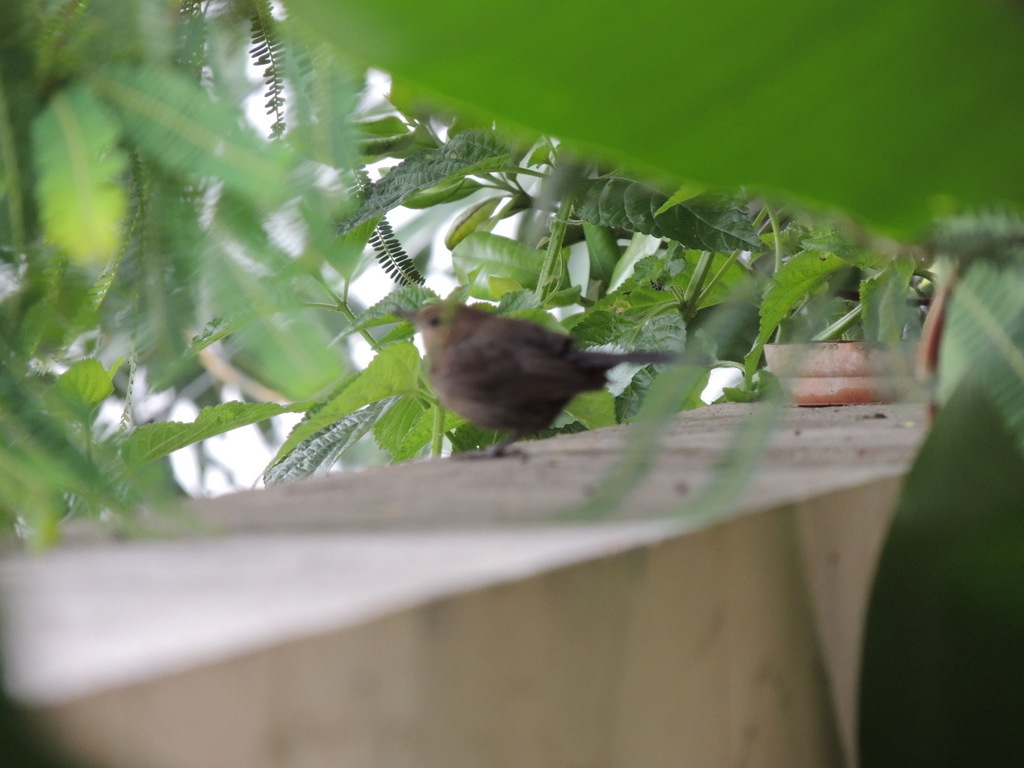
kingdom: Animalia
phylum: Chordata
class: Aves
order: Passeriformes
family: Muscicapidae
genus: Saxicoloides
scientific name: Saxicoloides fulicatus
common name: Indian robin
